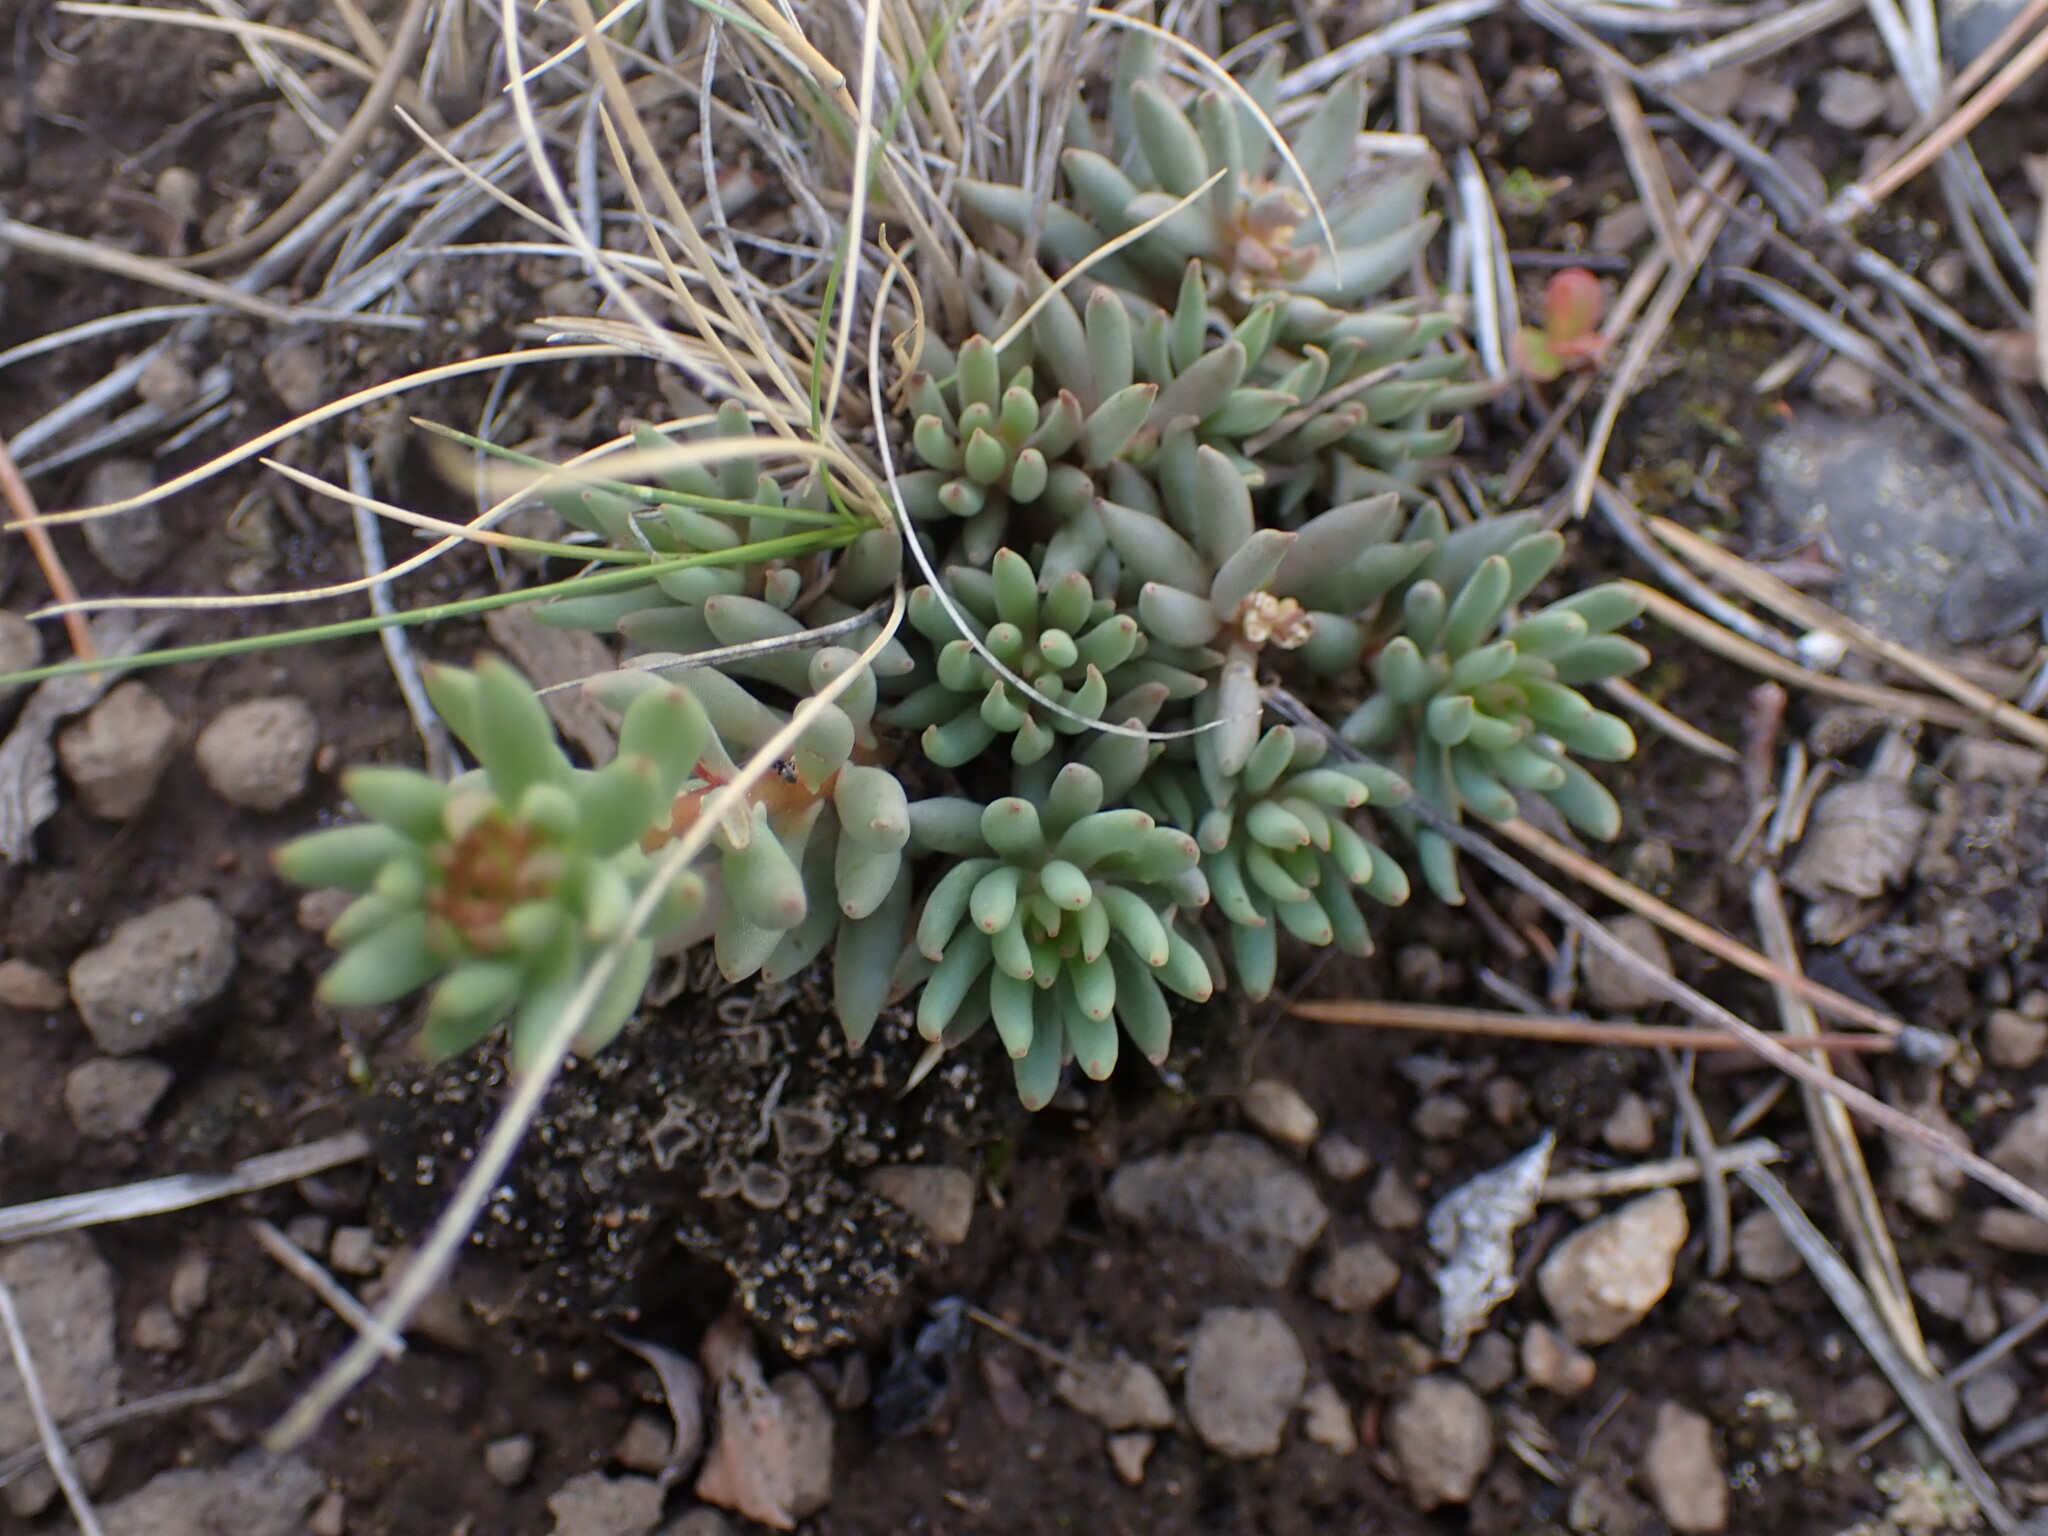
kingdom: Plantae
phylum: Tracheophyta
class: Magnoliopsida
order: Saxifragales
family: Crassulaceae
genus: Sedum
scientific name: Sedum lanceolatum
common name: Common stonecrop
